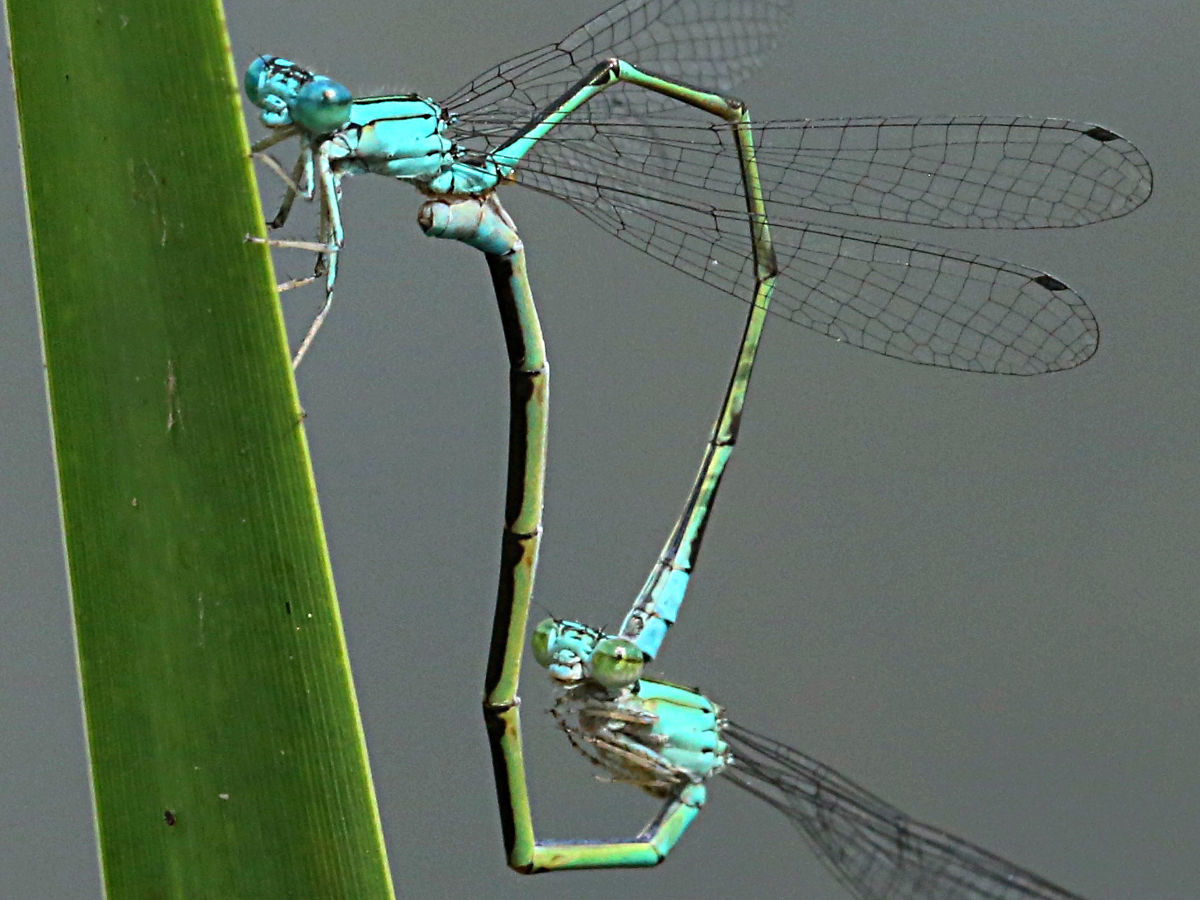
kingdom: Animalia
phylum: Arthropoda
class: Insecta
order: Odonata
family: Coenagrionidae
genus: Enallagma
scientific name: Enallagma traviatum
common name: Slender bluet
